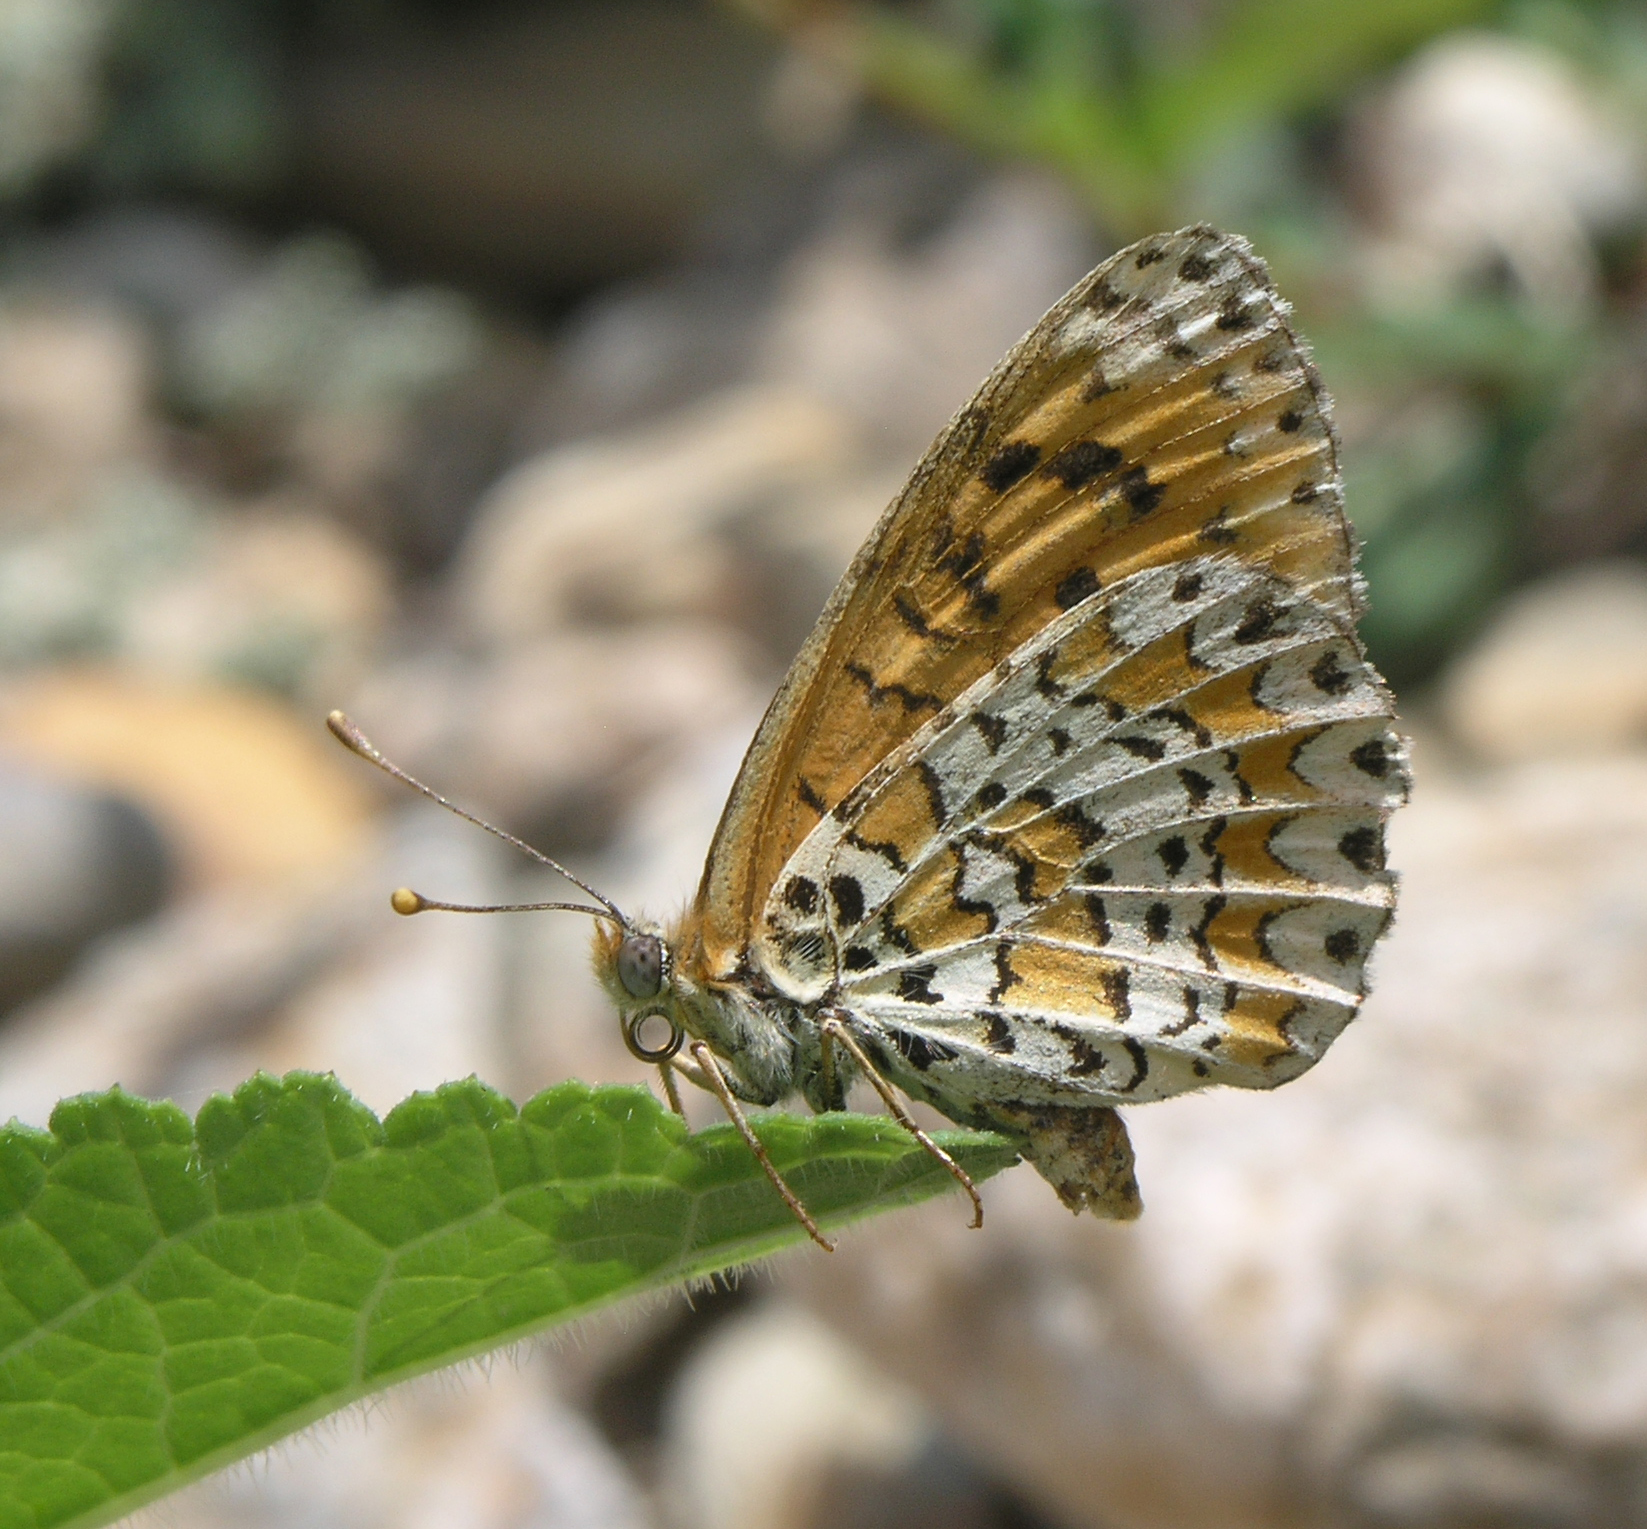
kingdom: Animalia
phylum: Arthropoda
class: Insecta
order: Lepidoptera
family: Nymphalidae
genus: Melitaea
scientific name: Melitaea trivia
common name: Lesser spotted fritillary
